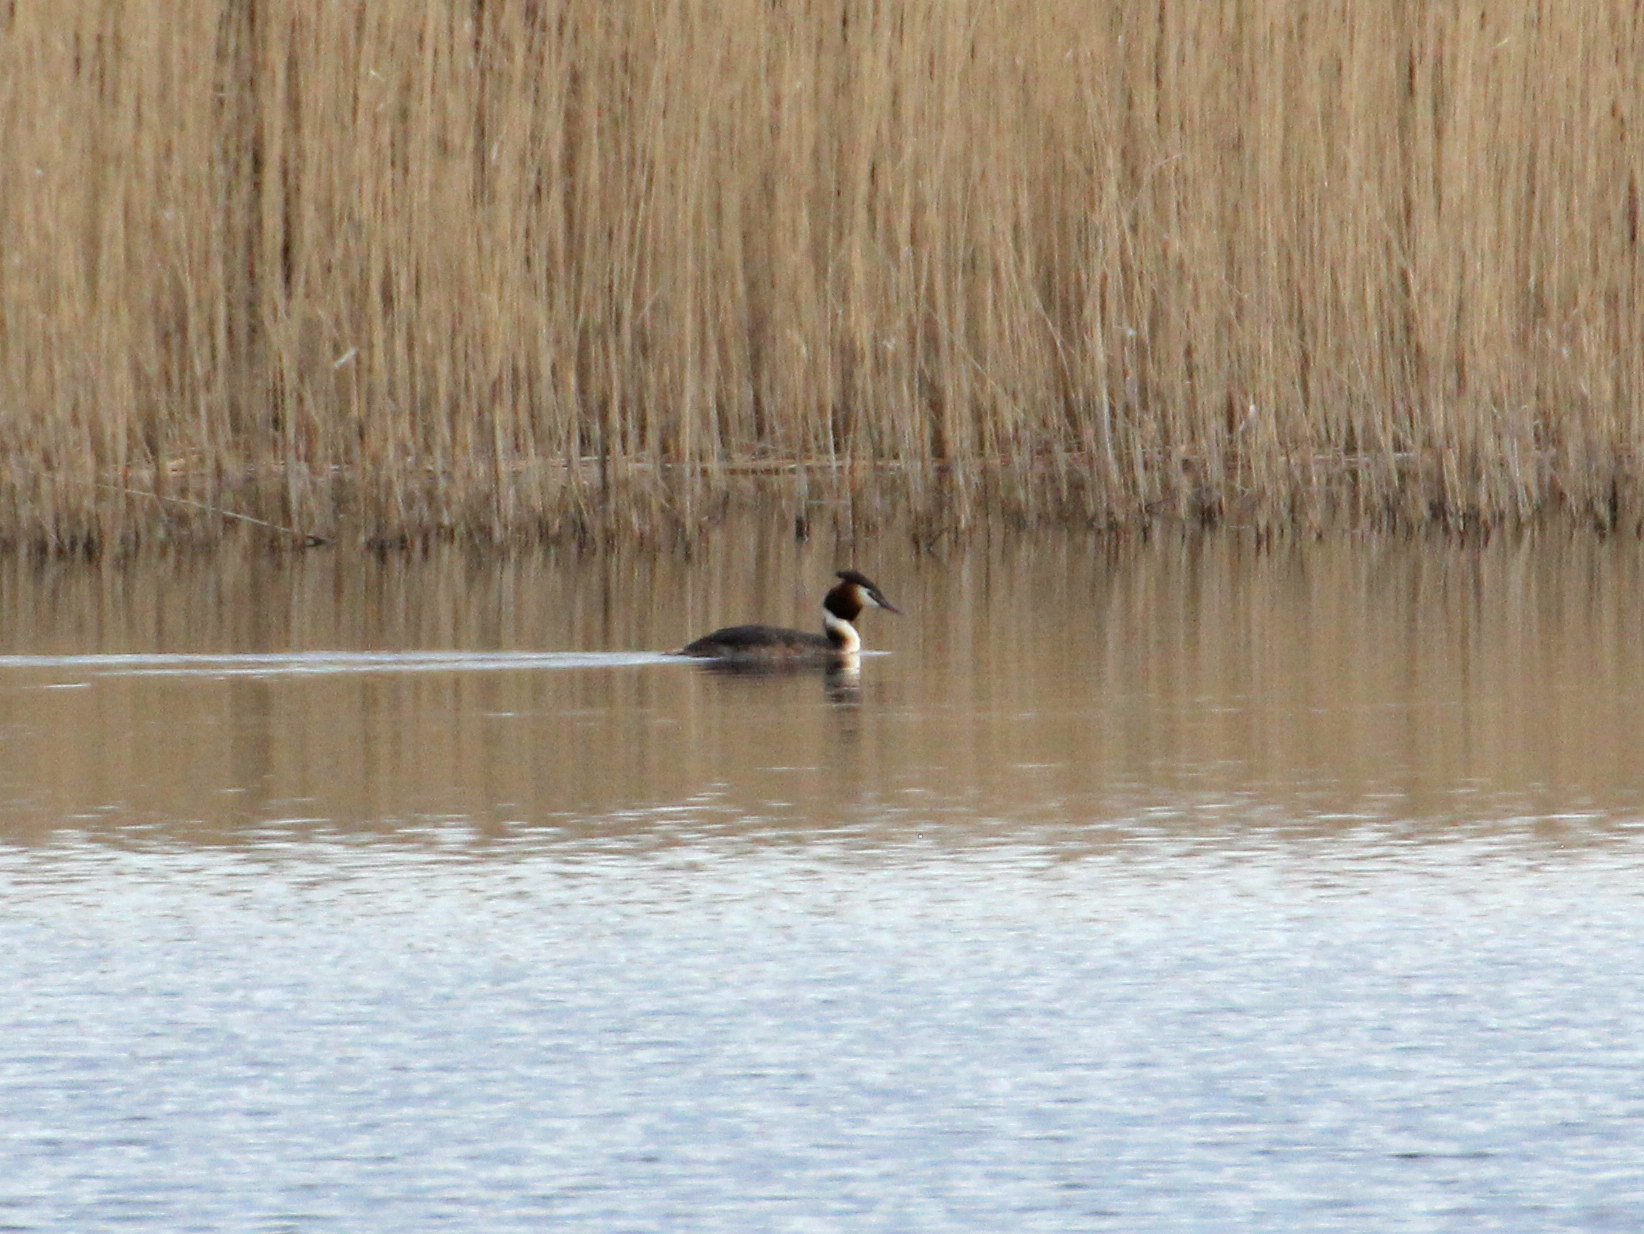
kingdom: Animalia
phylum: Chordata
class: Aves
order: Podicipediformes
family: Podicipedidae
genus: Podiceps
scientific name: Podiceps cristatus
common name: Great crested grebe
